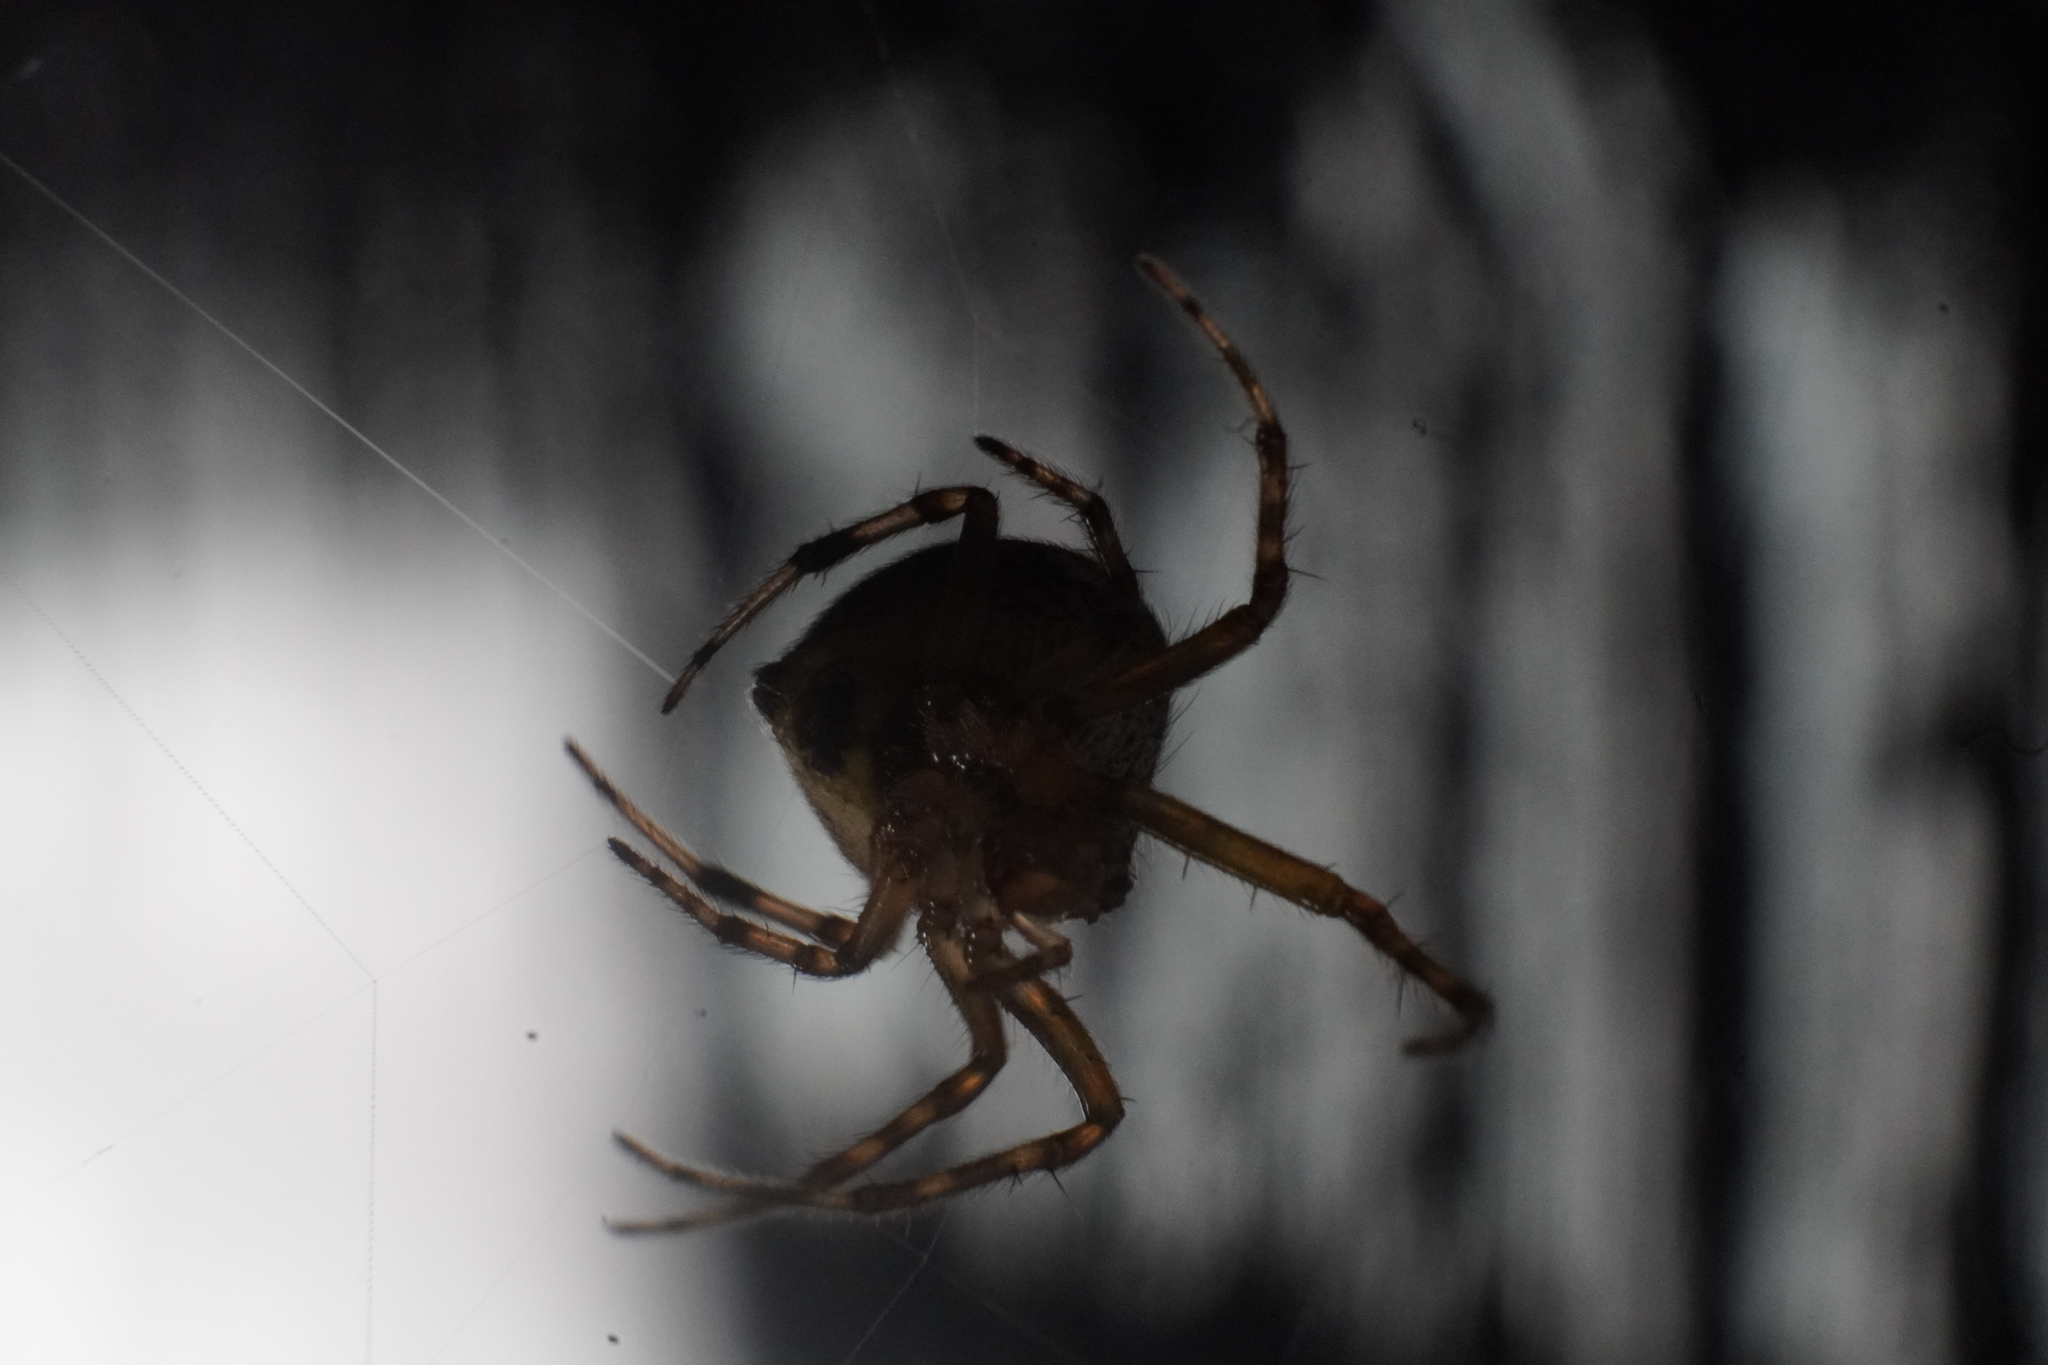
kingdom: Animalia
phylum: Arthropoda
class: Arachnida
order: Araneae
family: Araneidae
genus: Araneus
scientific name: Araneus pegnia
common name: Orb weavers
